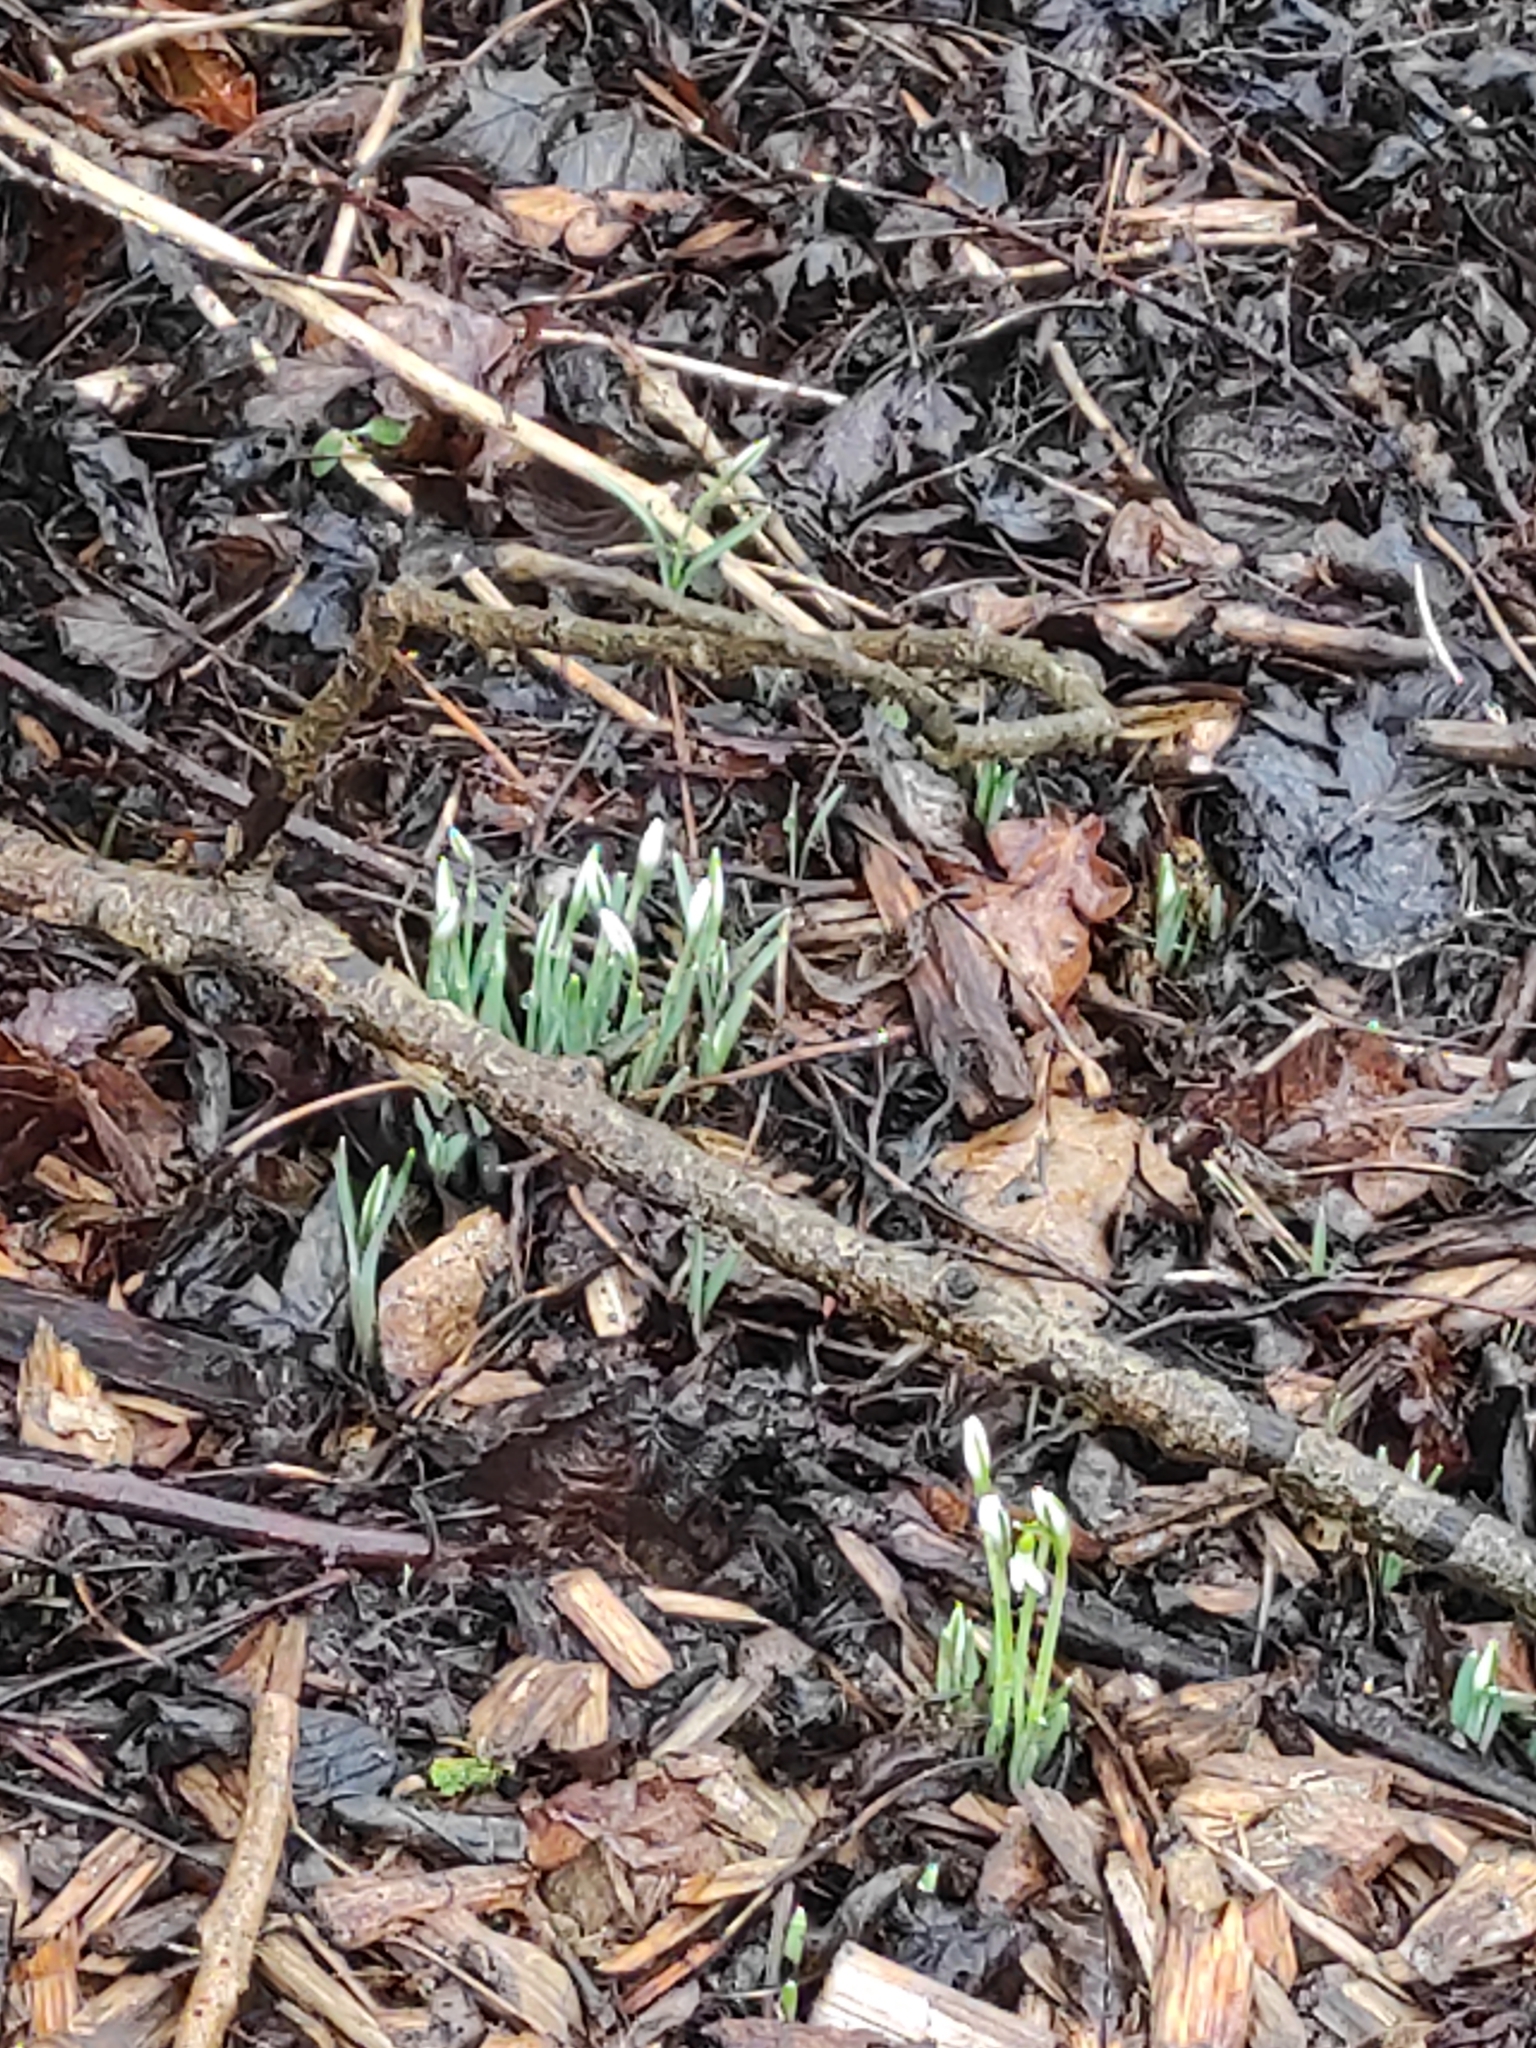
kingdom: Plantae
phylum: Tracheophyta
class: Liliopsida
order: Asparagales
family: Amaryllidaceae
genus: Galanthus
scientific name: Galanthus nivalis
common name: Snowdrop
